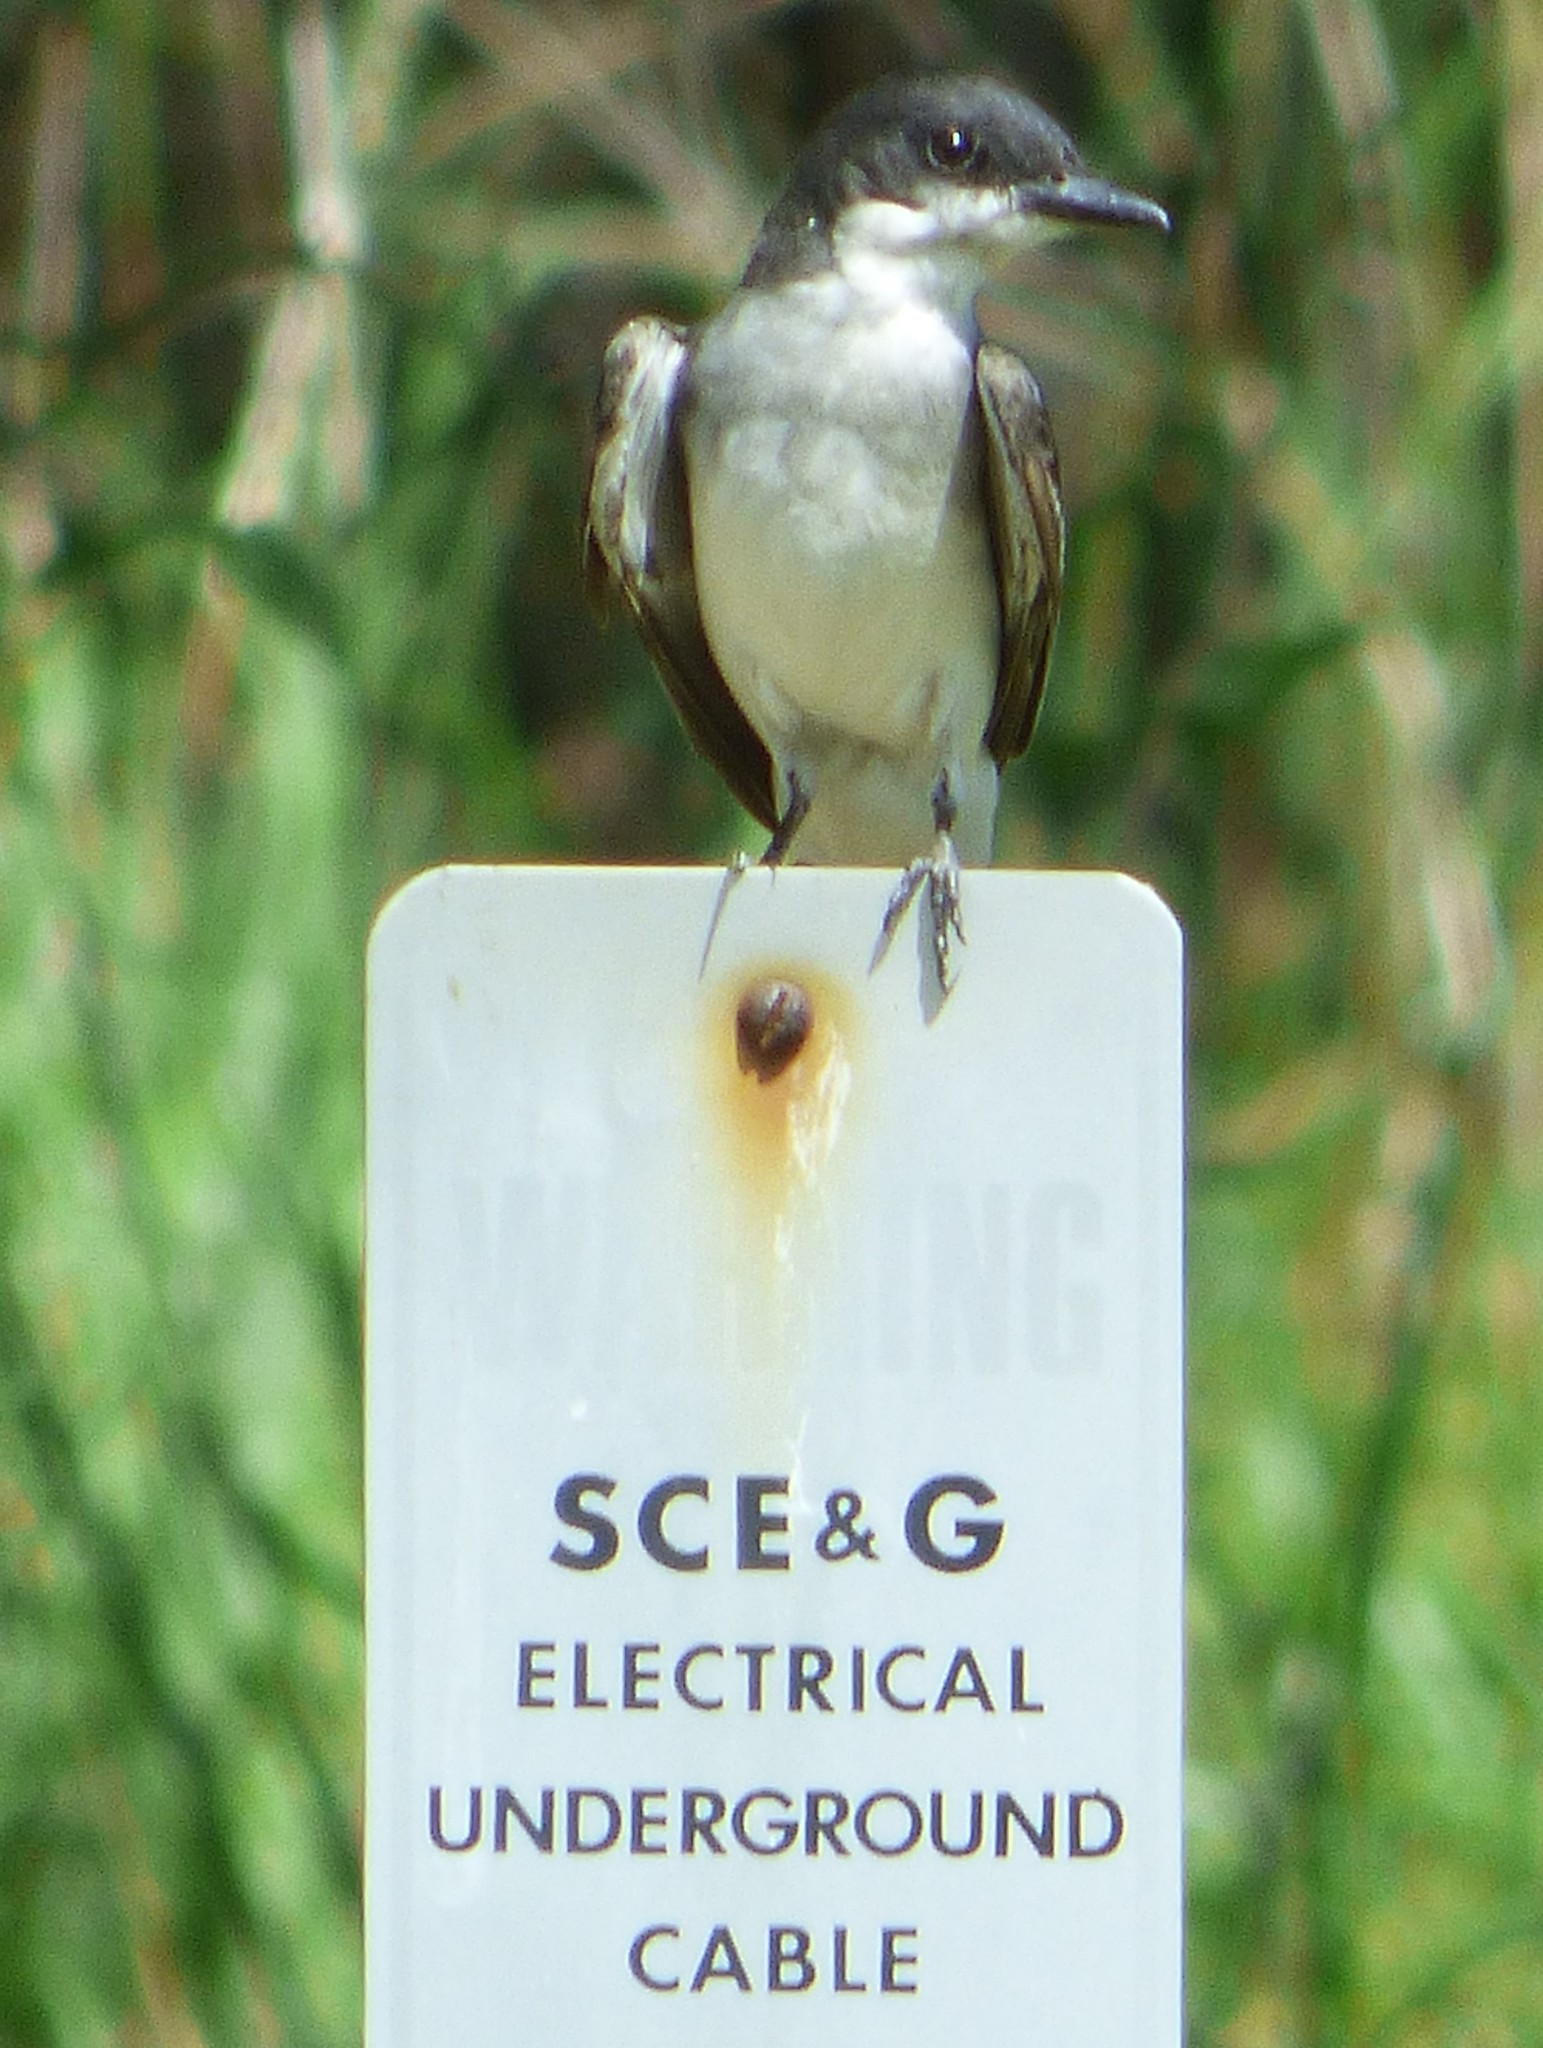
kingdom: Animalia
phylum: Chordata
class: Aves
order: Passeriformes
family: Tyrannidae
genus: Tyrannus
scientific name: Tyrannus tyrannus
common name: Eastern kingbird
